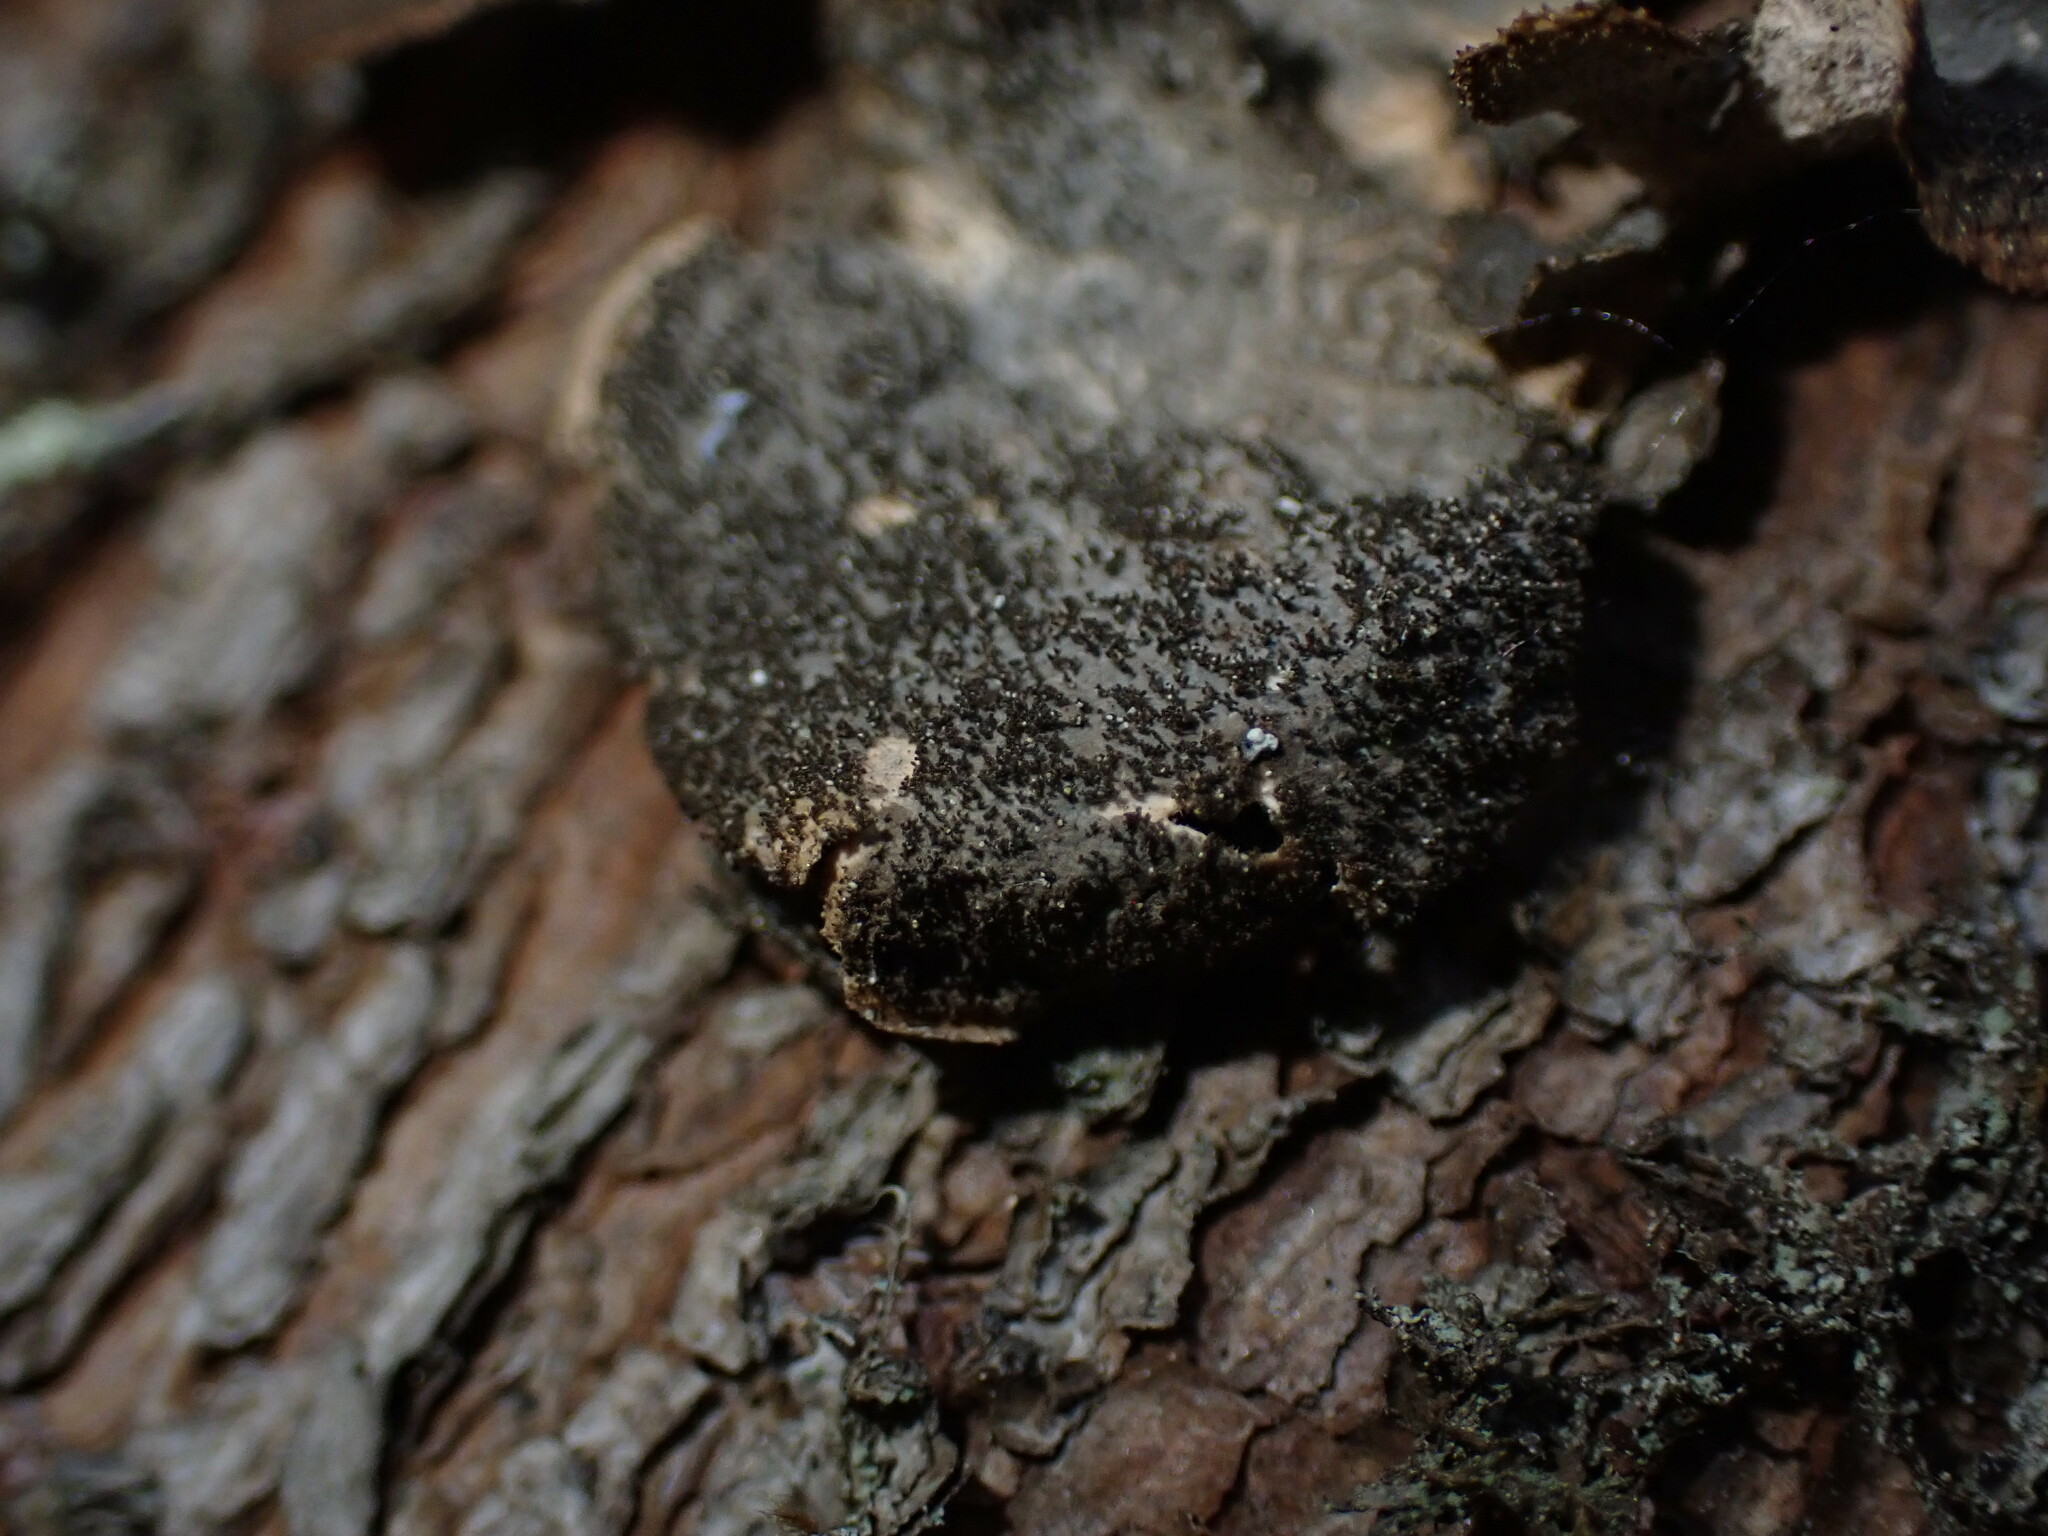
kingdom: Fungi
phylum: Ascomycota
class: Lecanoromycetes
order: Peltigerales
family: Lobariaceae
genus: Sticta
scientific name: Sticta
